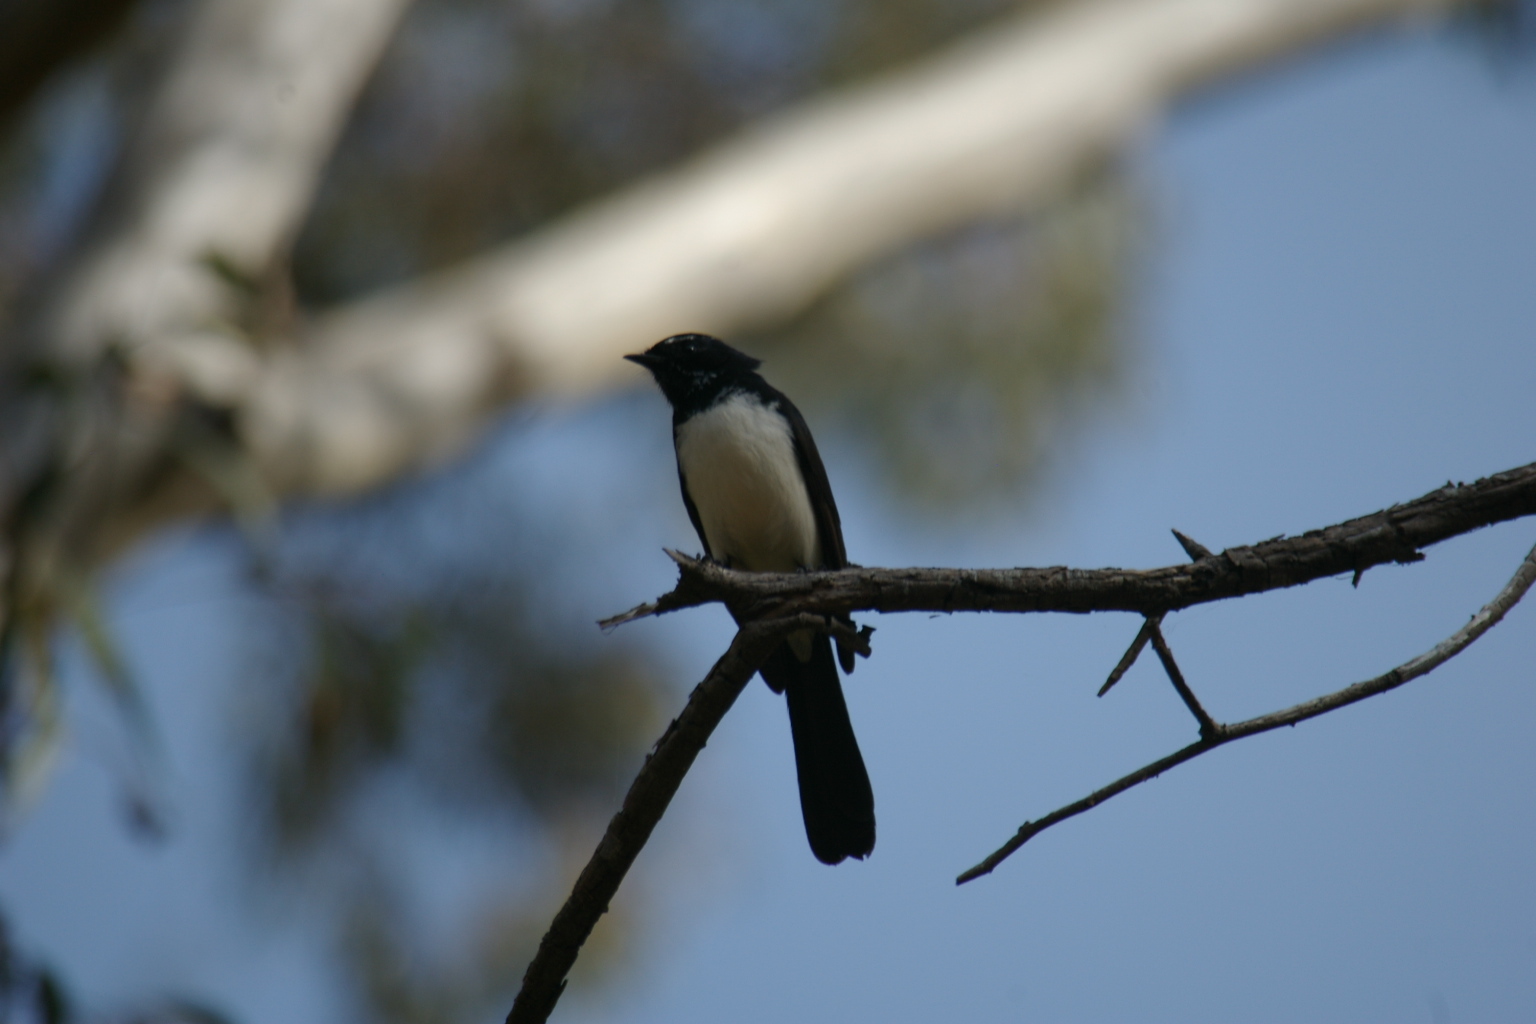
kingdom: Animalia
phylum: Chordata
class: Aves
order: Passeriformes
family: Rhipiduridae
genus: Rhipidura
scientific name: Rhipidura leucophrys
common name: Willie wagtail
